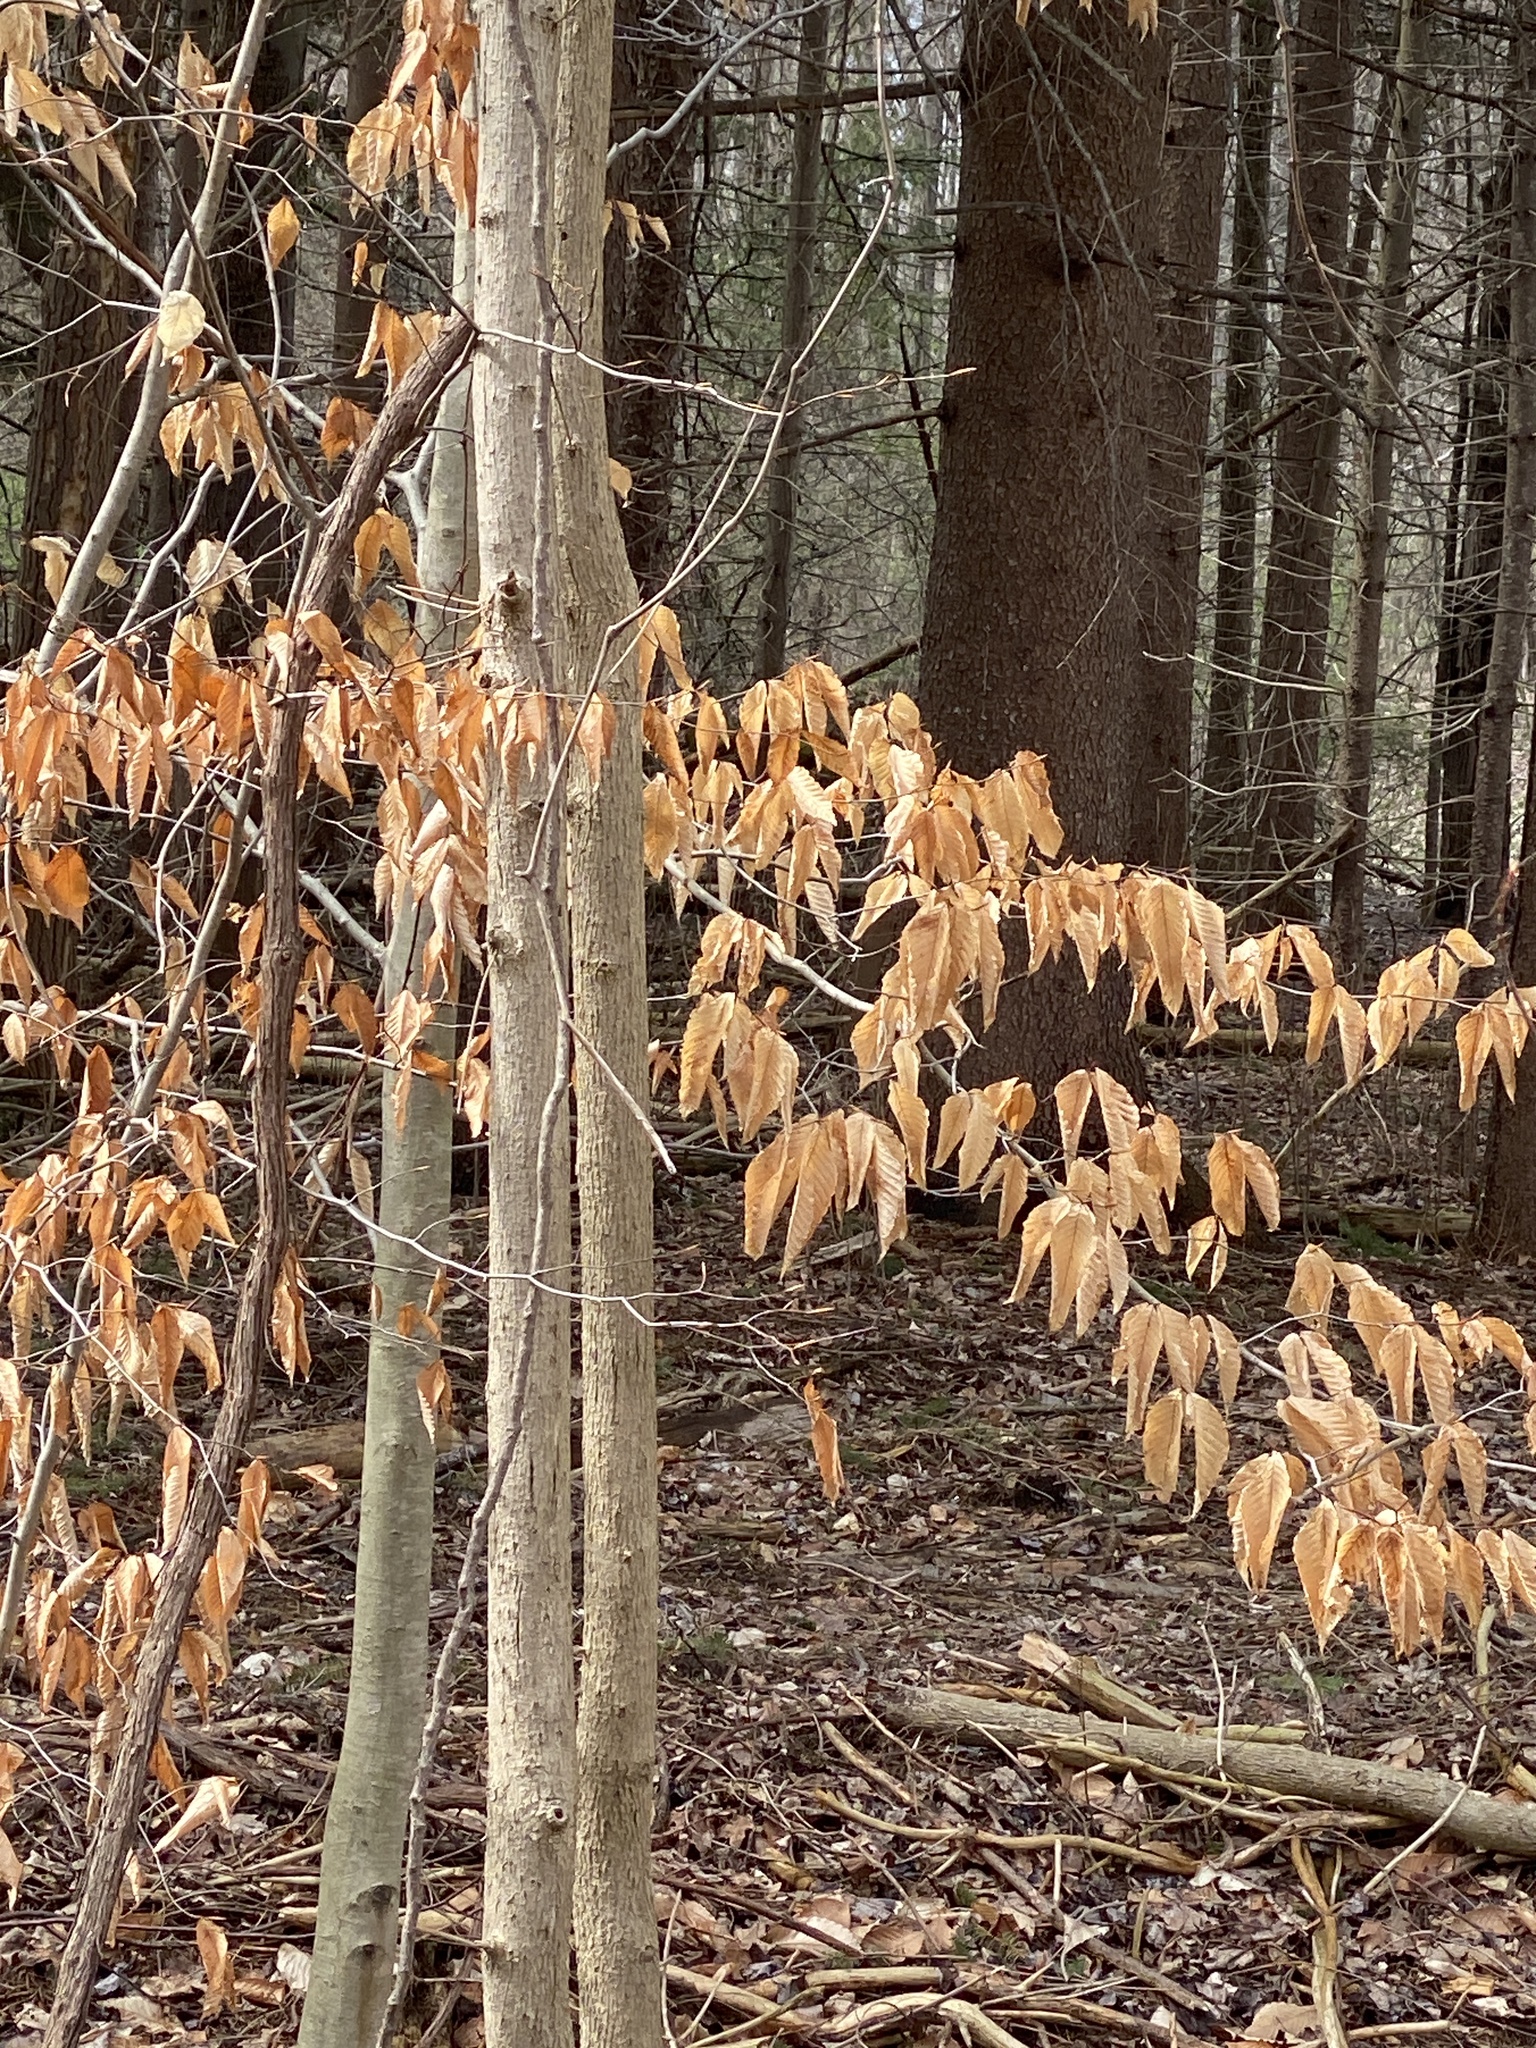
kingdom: Plantae
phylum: Tracheophyta
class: Magnoliopsida
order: Fagales
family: Fagaceae
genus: Fagus
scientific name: Fagus grandifolia
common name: American beech
